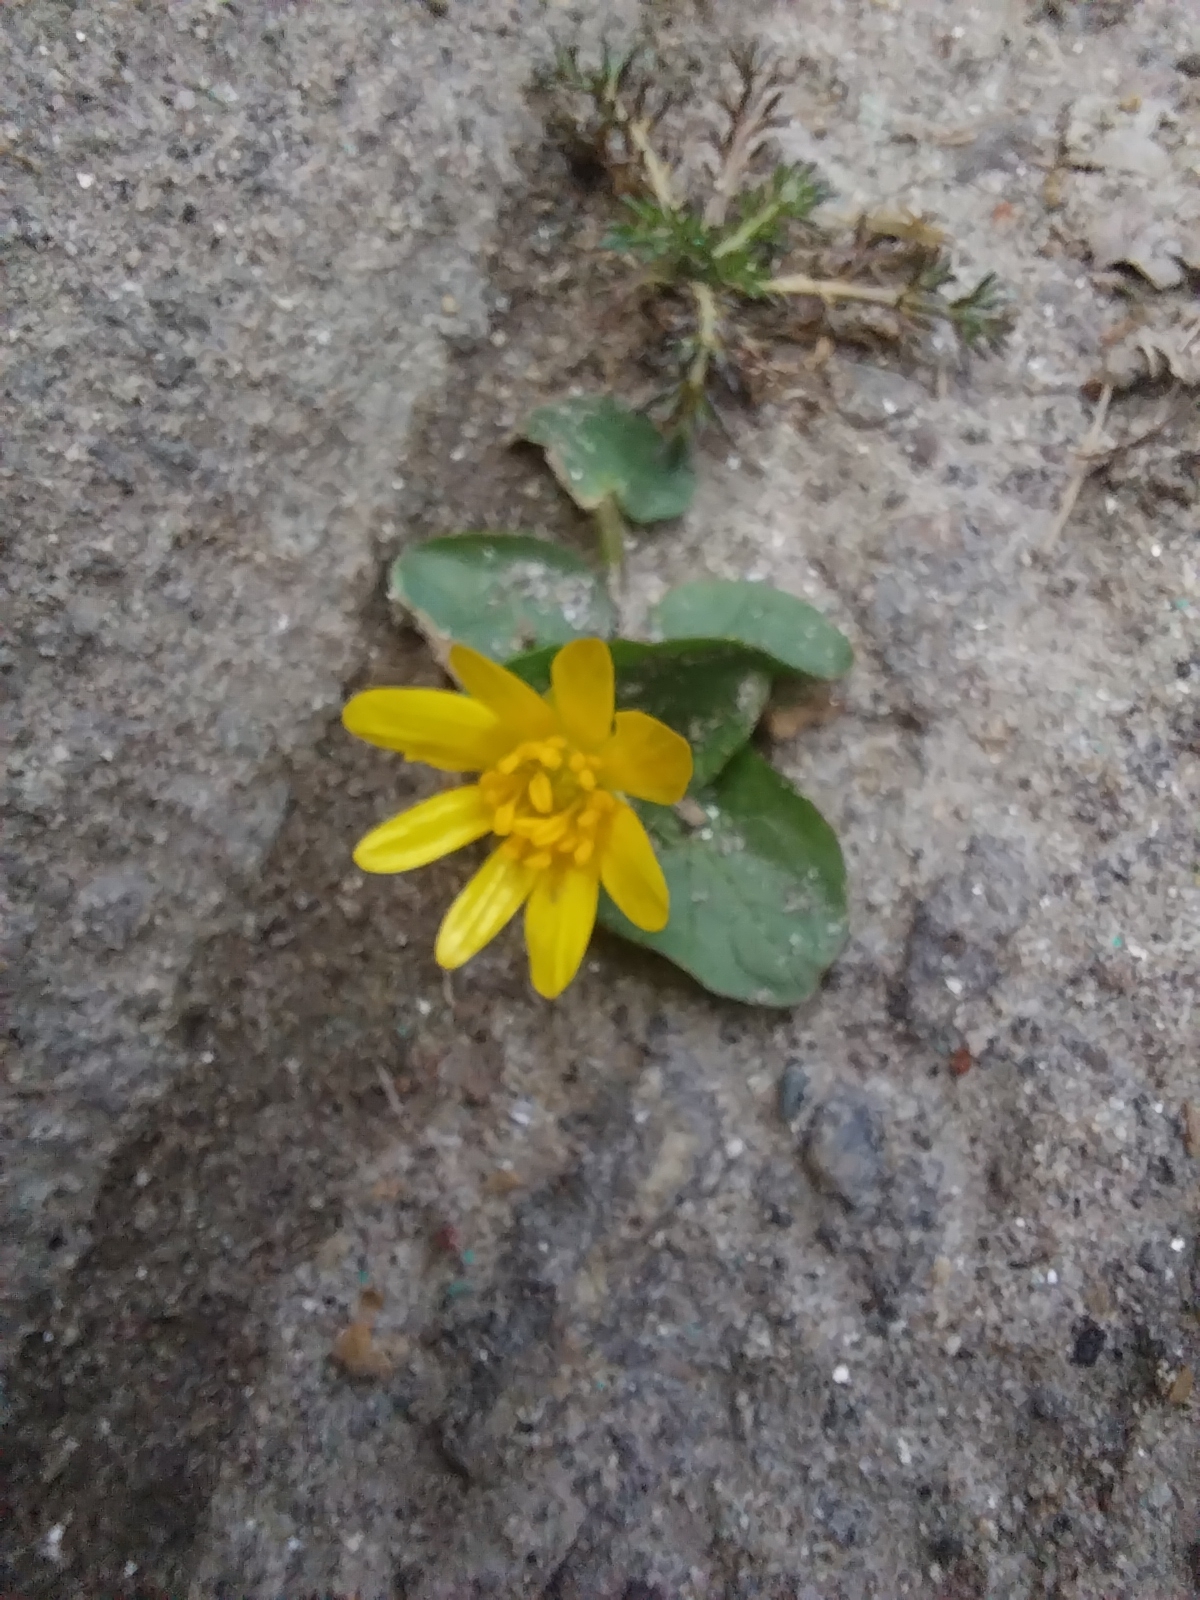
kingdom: Plantae
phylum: Tracheophyta
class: Magnoliopsida
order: Ranunculales
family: Ranunculaceae
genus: Ficaria
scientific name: Ficaria verna
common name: Lesser celandine
